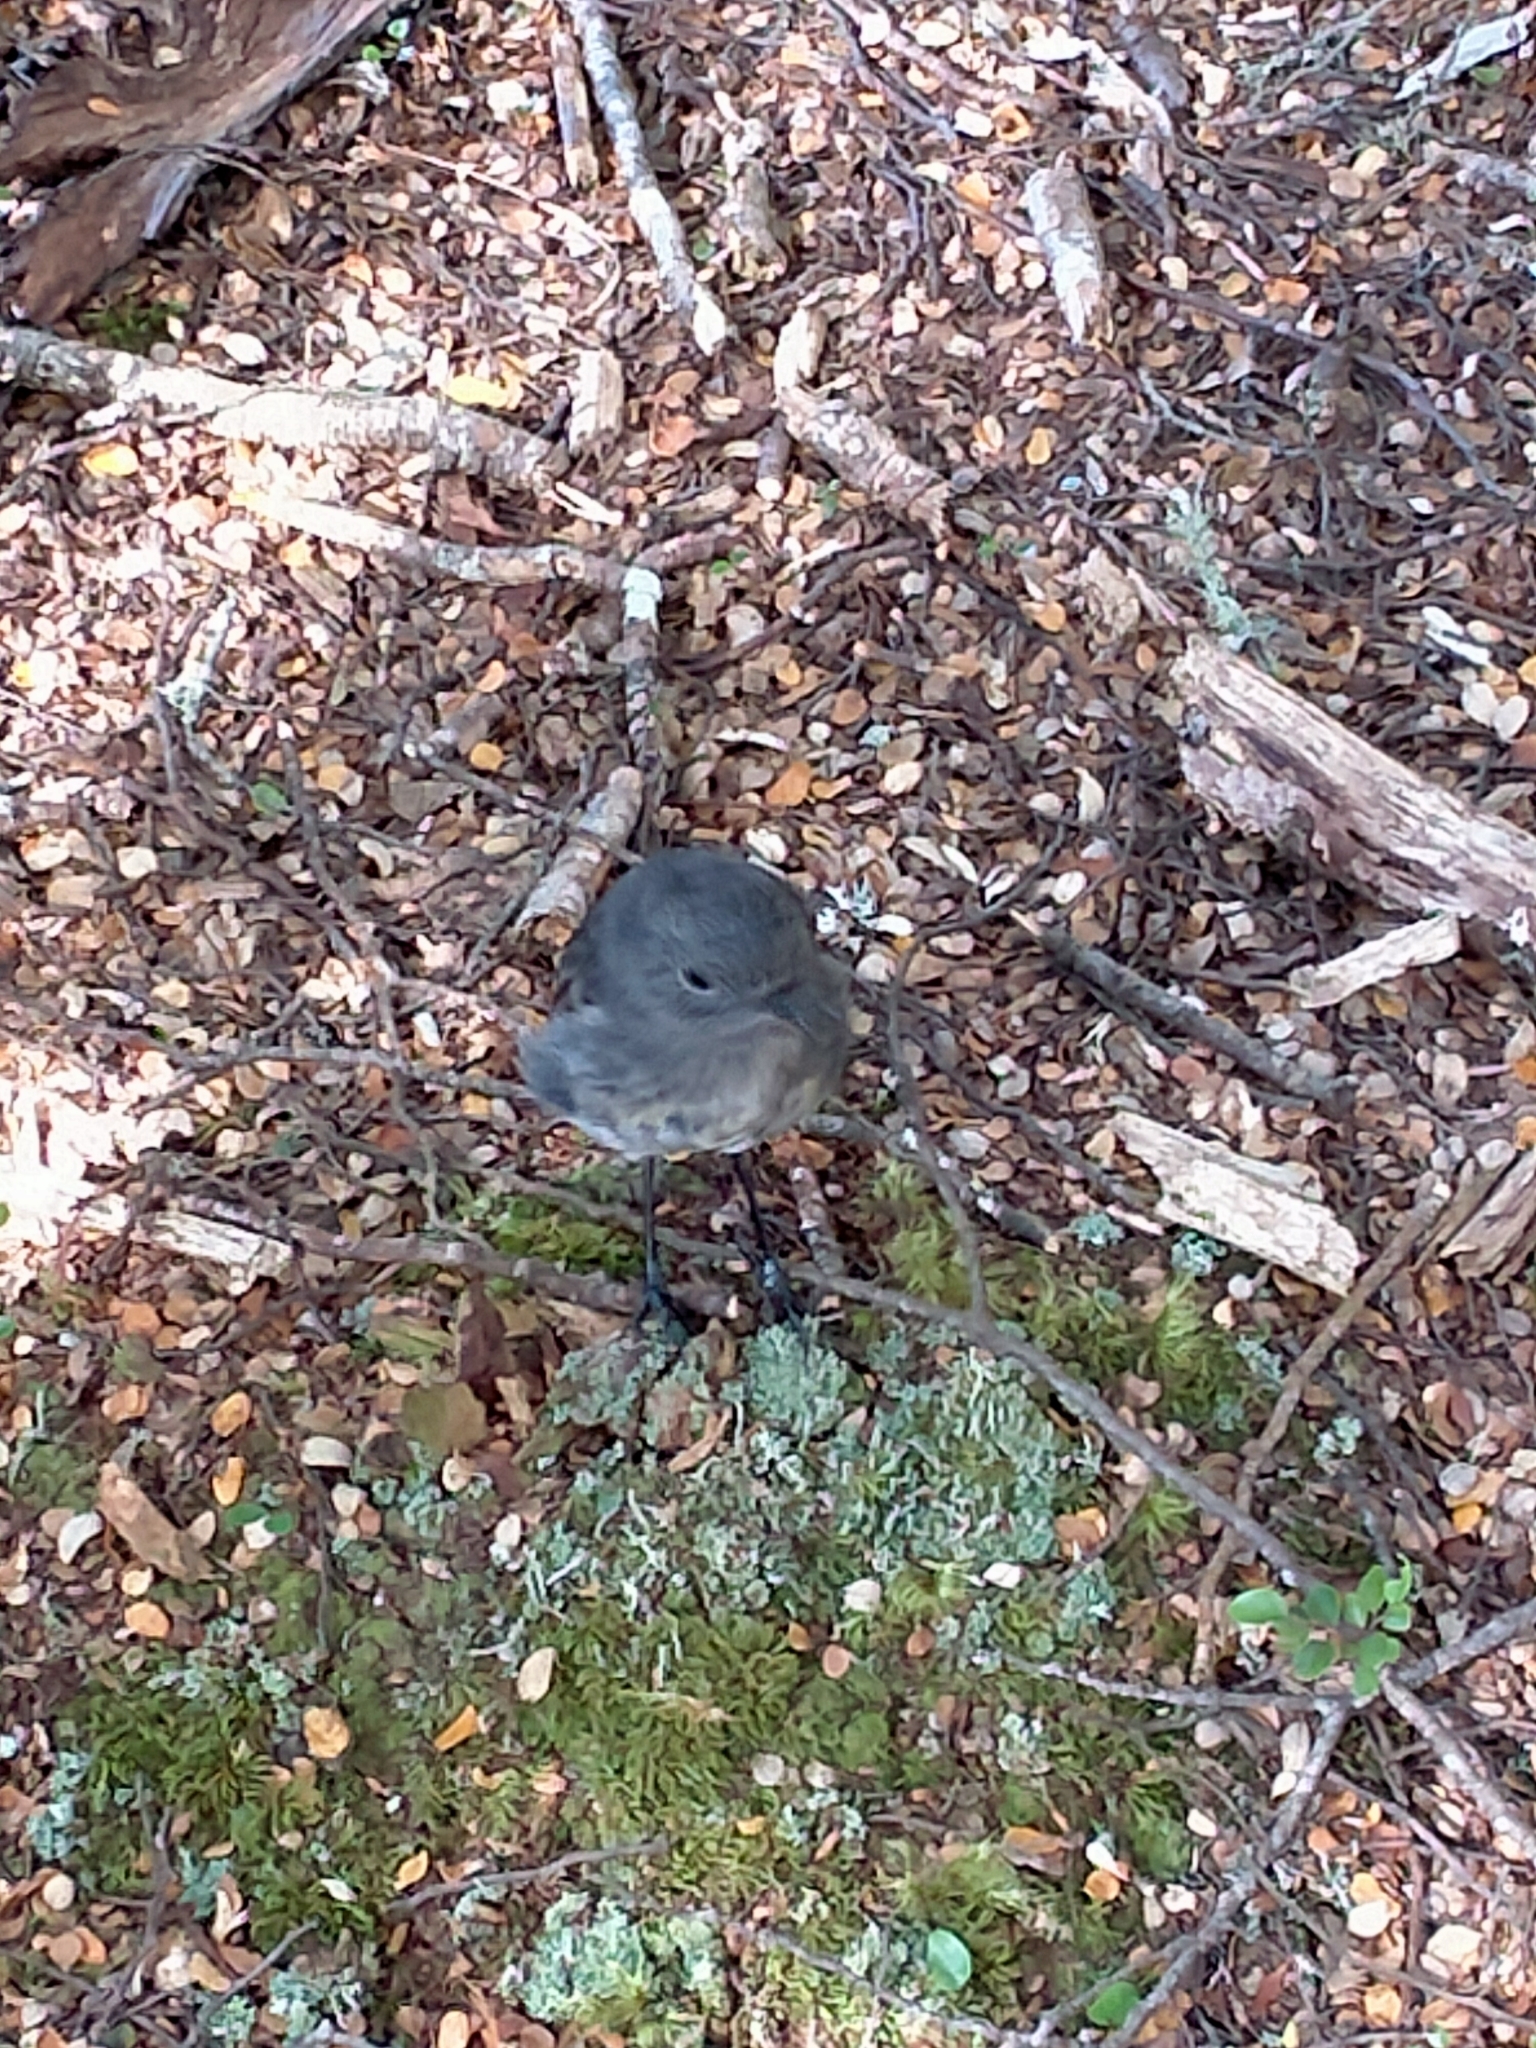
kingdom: Animalia
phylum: Chordata
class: Aves
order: Passeriformes
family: Petroicidae
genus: Petroica
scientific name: Petroica australis
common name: New zealand robin
